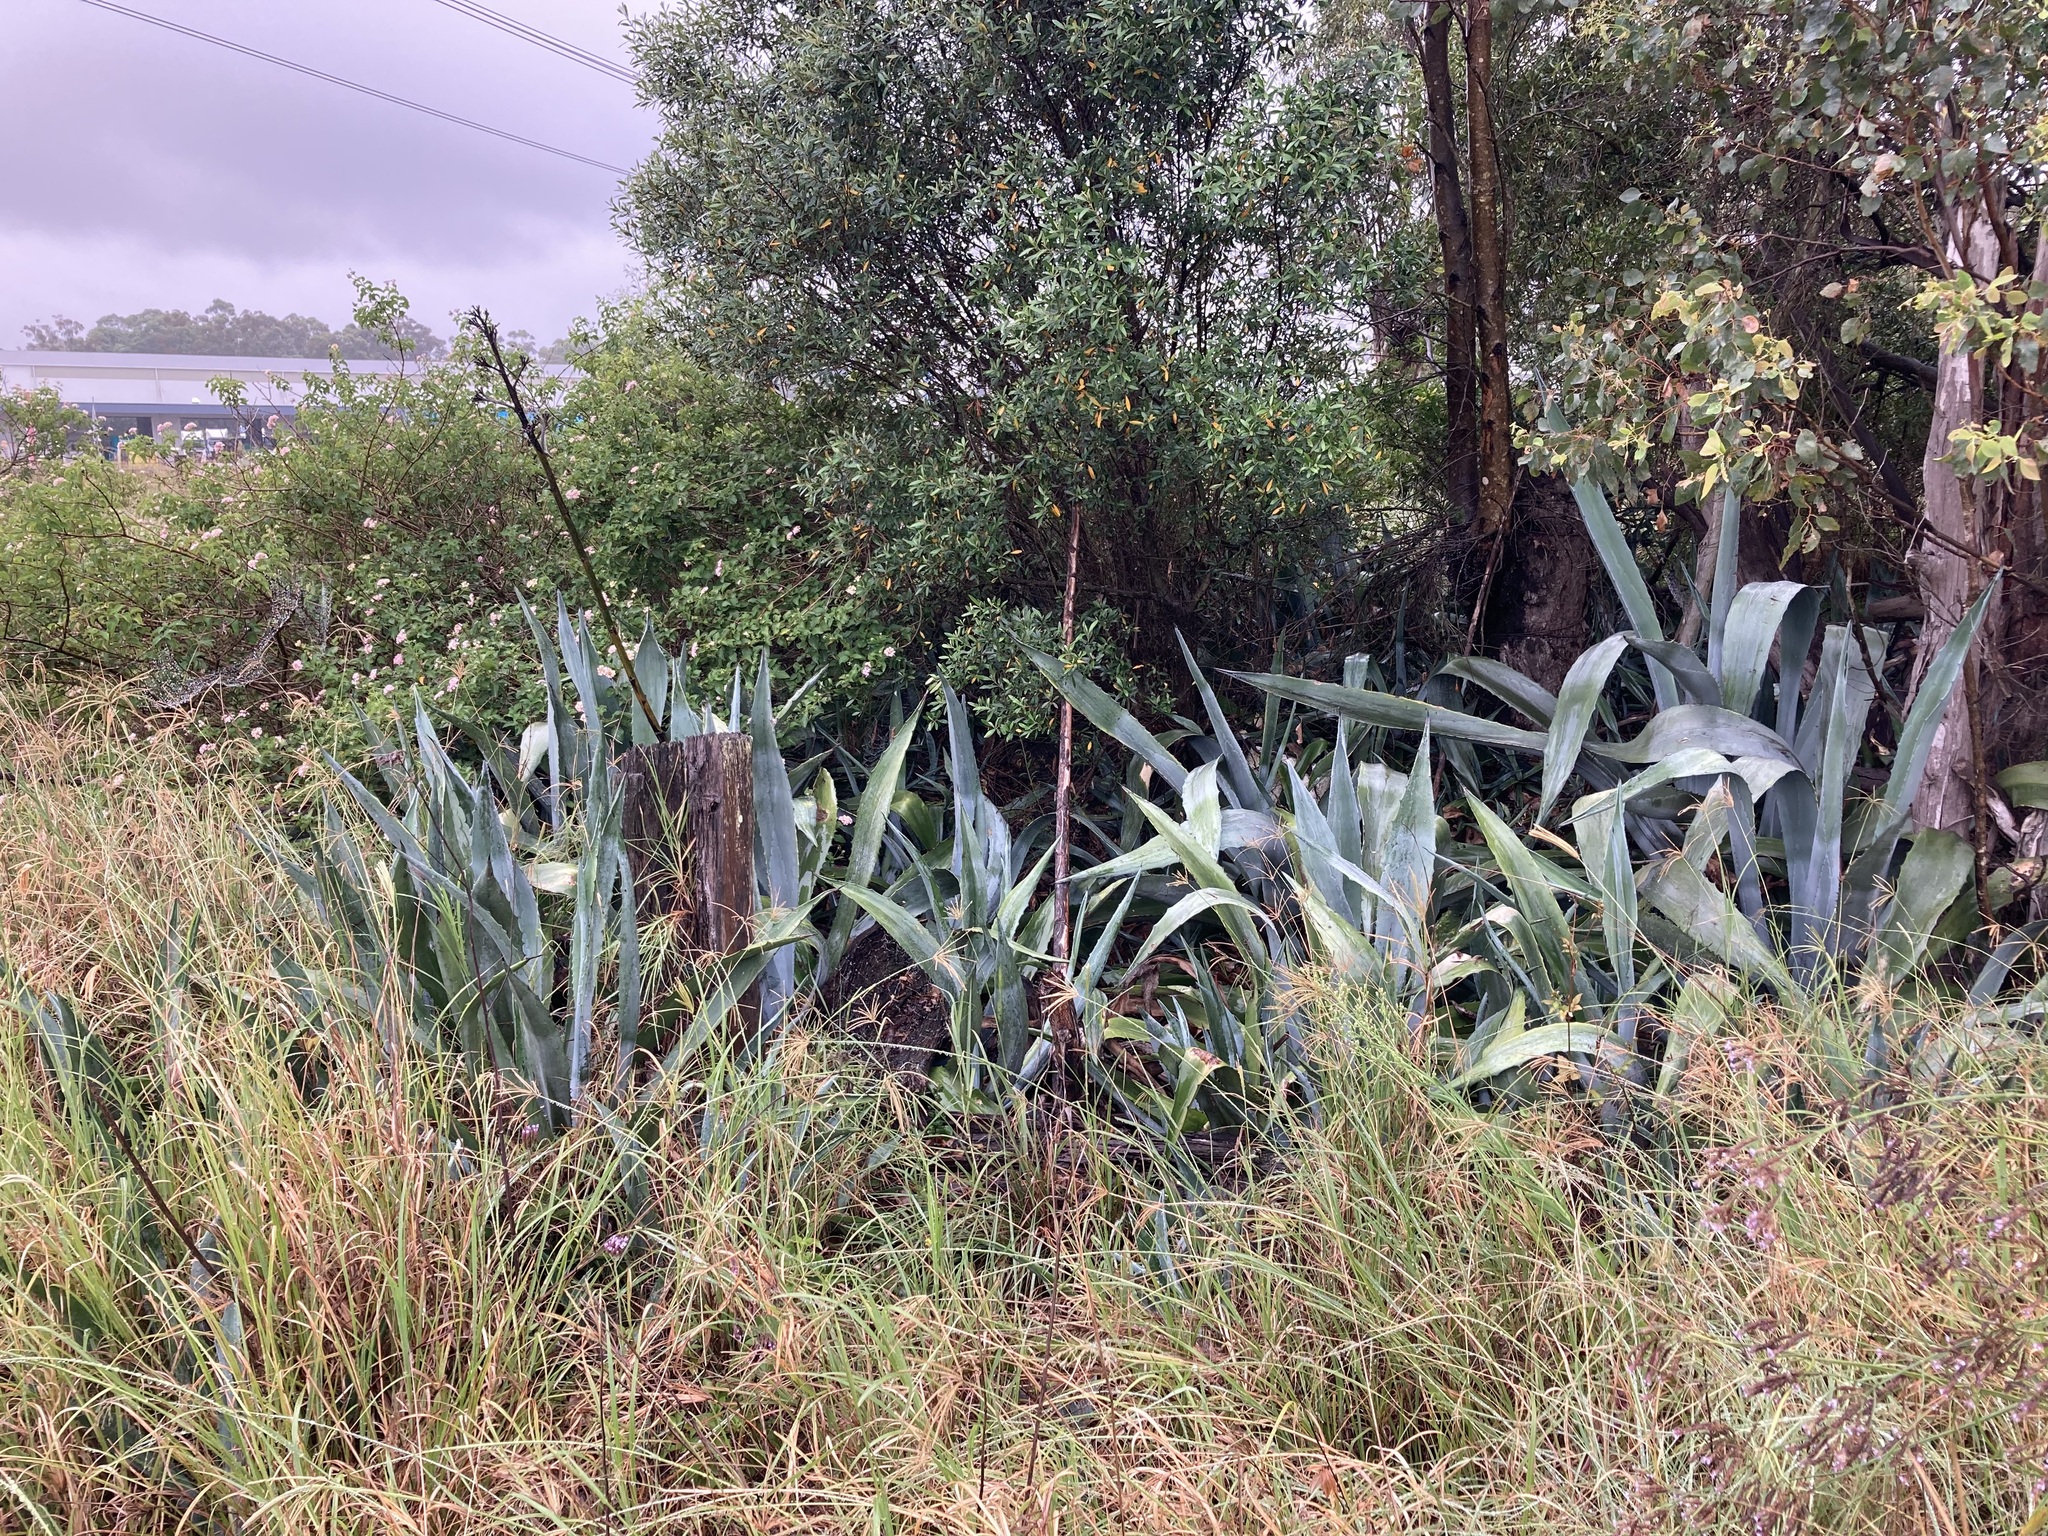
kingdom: Plantae
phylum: Tracheophyta
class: Liliopsida
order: Asparagales
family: Asparagaceae
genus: Agave
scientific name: Agave americana
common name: Centuryplant
